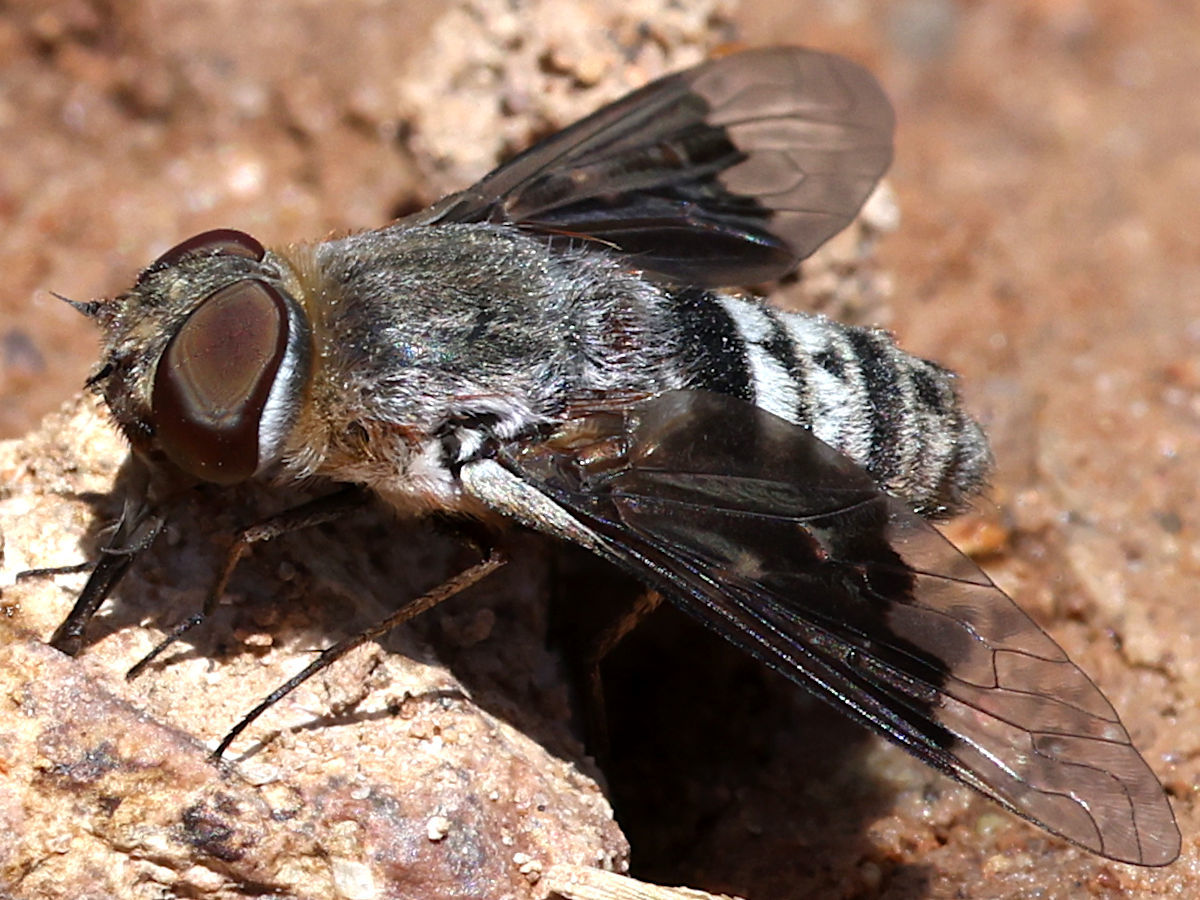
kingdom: Animalia
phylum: Arthropoda
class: Insecta
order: Diptera
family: Bombyliidae
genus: Thyridanthrax
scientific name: Thyridanthrax selene
